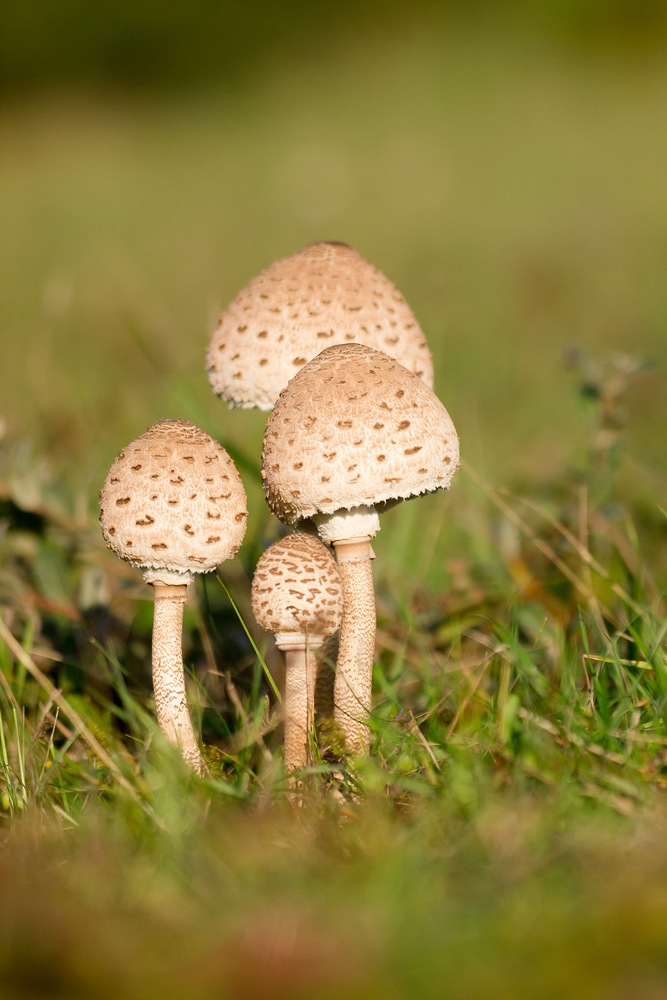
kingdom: Fungi
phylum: Basidiomycota
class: Agaricomycetes
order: Agaricales
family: Agaricaceae
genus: Macrolepiota
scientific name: Macrolepiota procera
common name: Parasol
